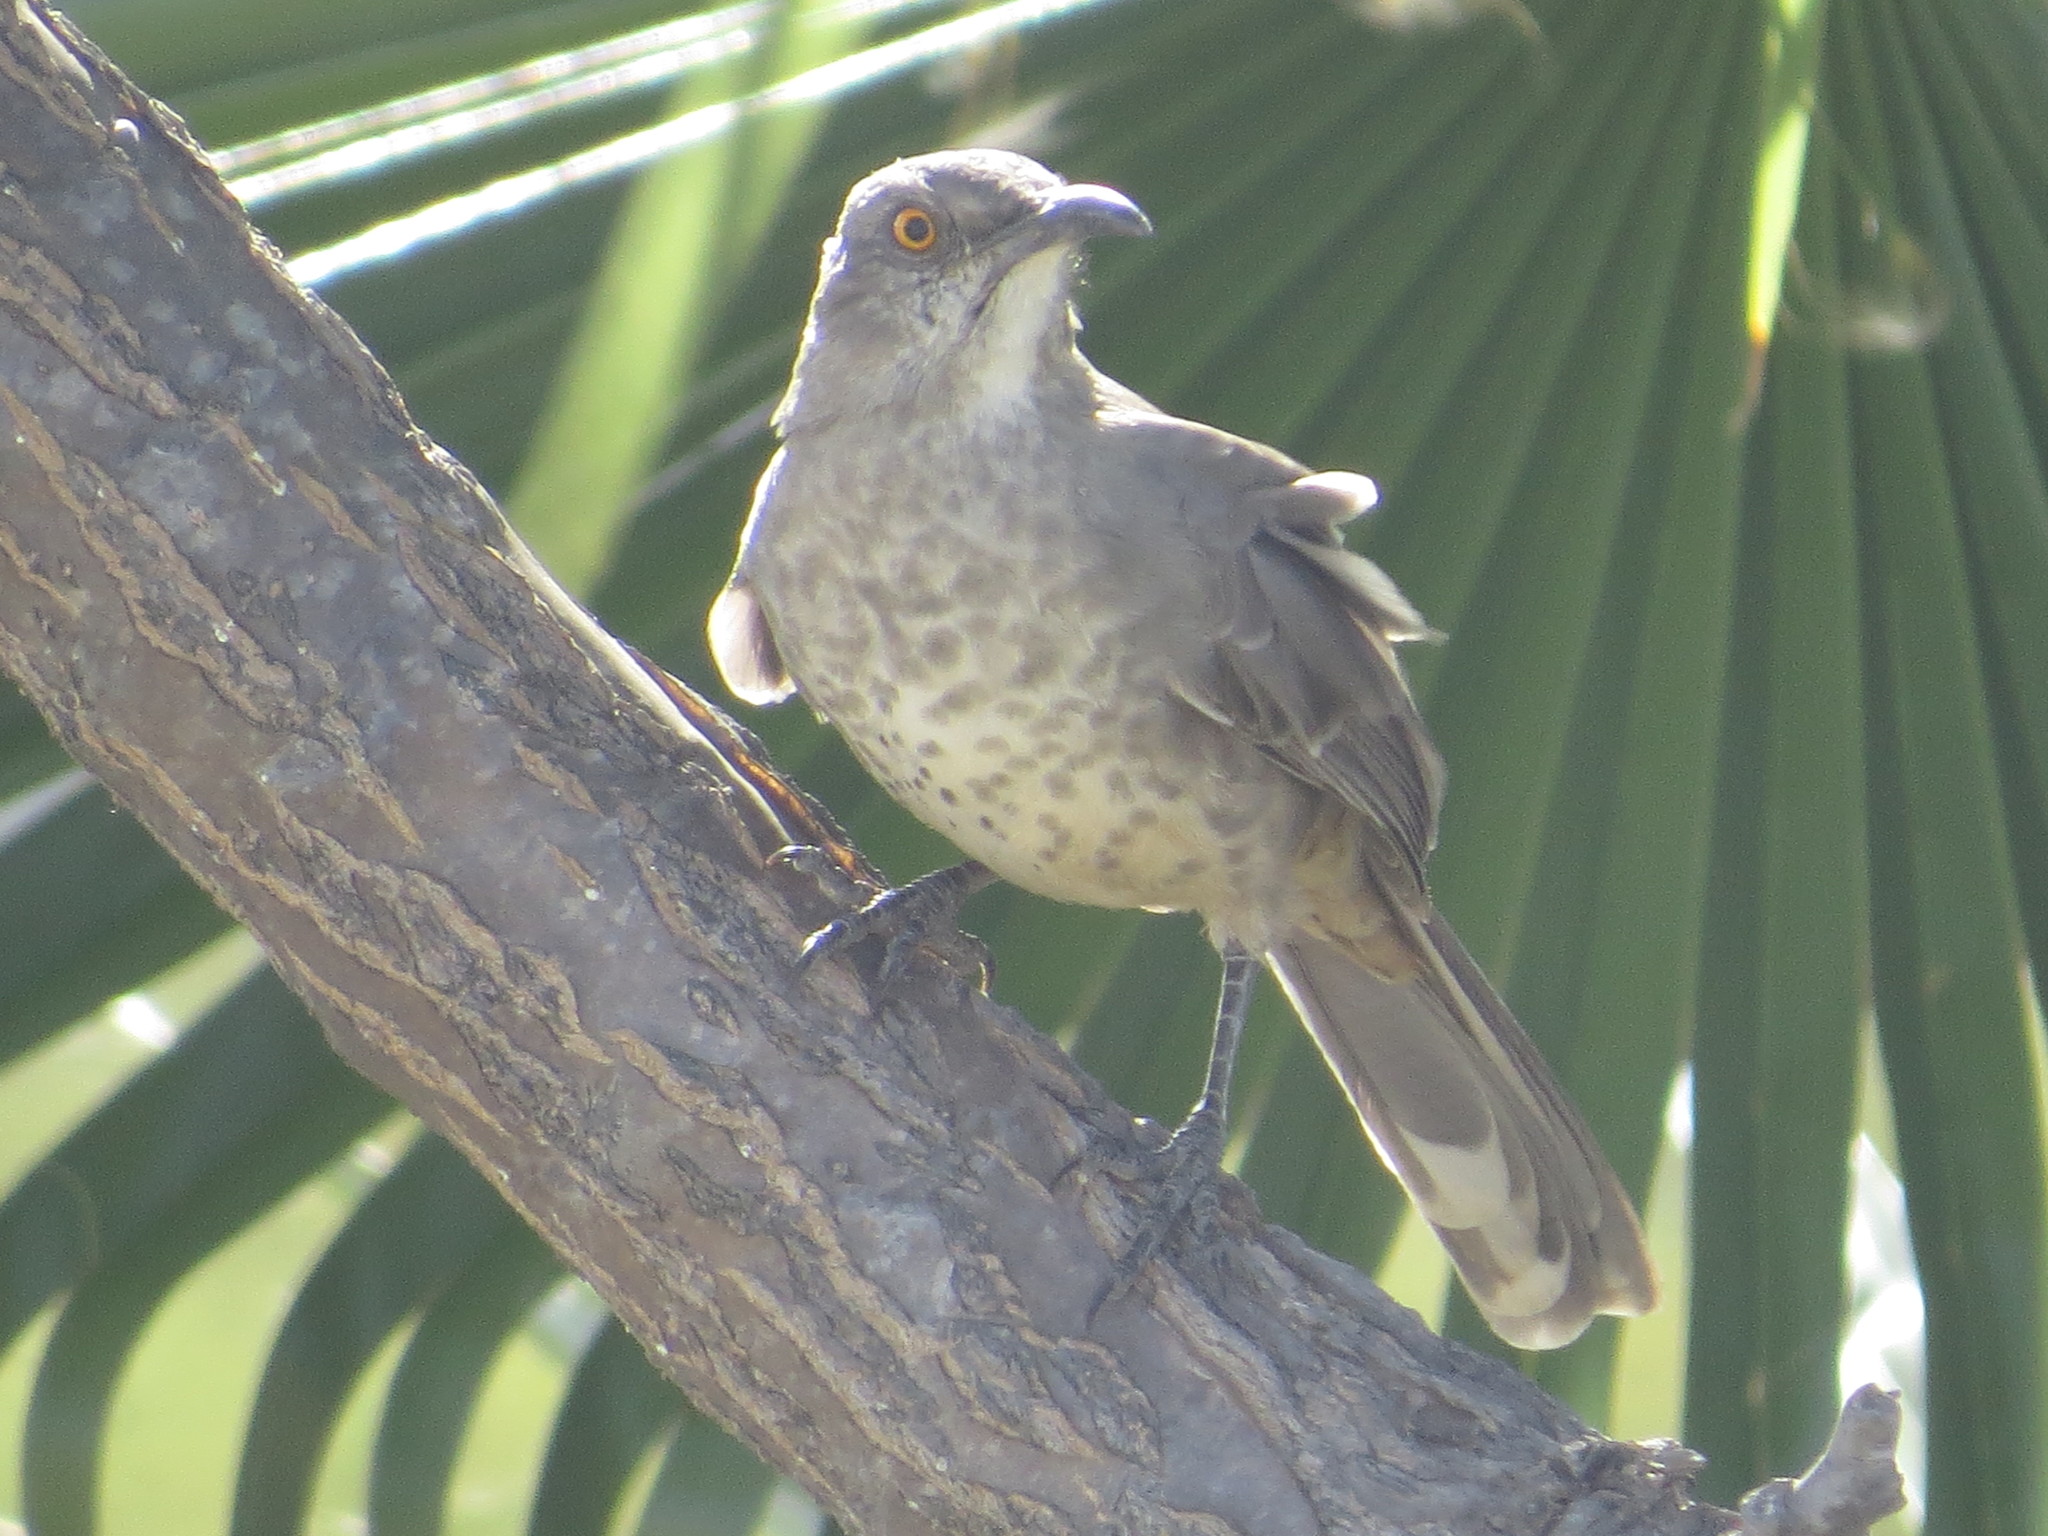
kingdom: Animalia
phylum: Chordata
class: Aves
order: Passeriformes
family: Mimidae
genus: Toxostoma
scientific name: Toxostoma curvirostre
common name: Curve-billed thrasher
